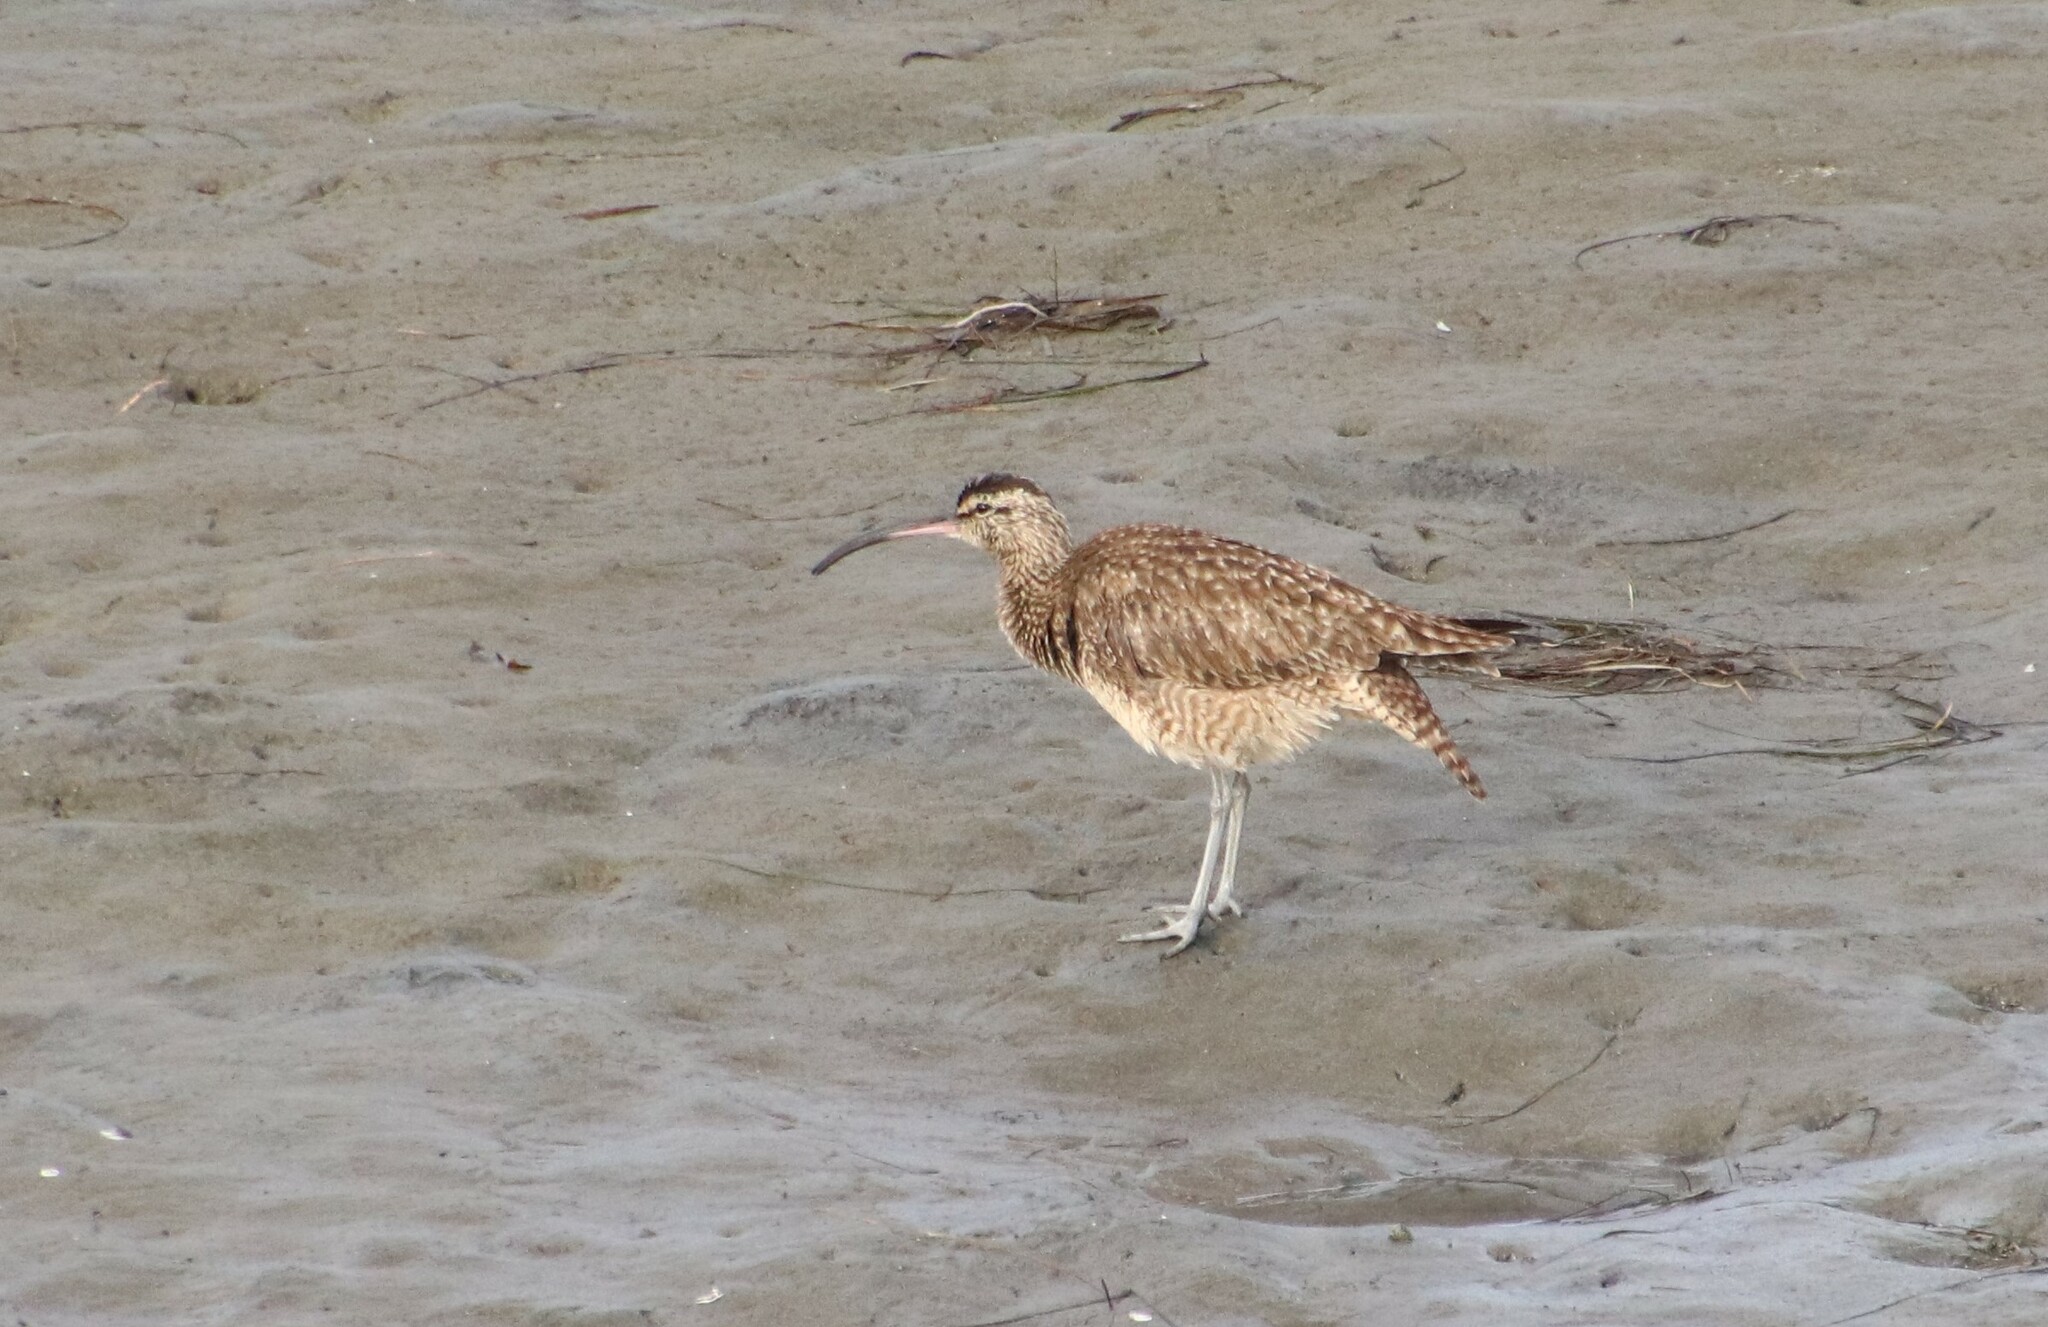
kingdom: Animalia
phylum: Chordata
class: Aves
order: Charadriiformes
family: Scolopacidae
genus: Numenius
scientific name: Numenius phaeopus
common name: Whimbrel
